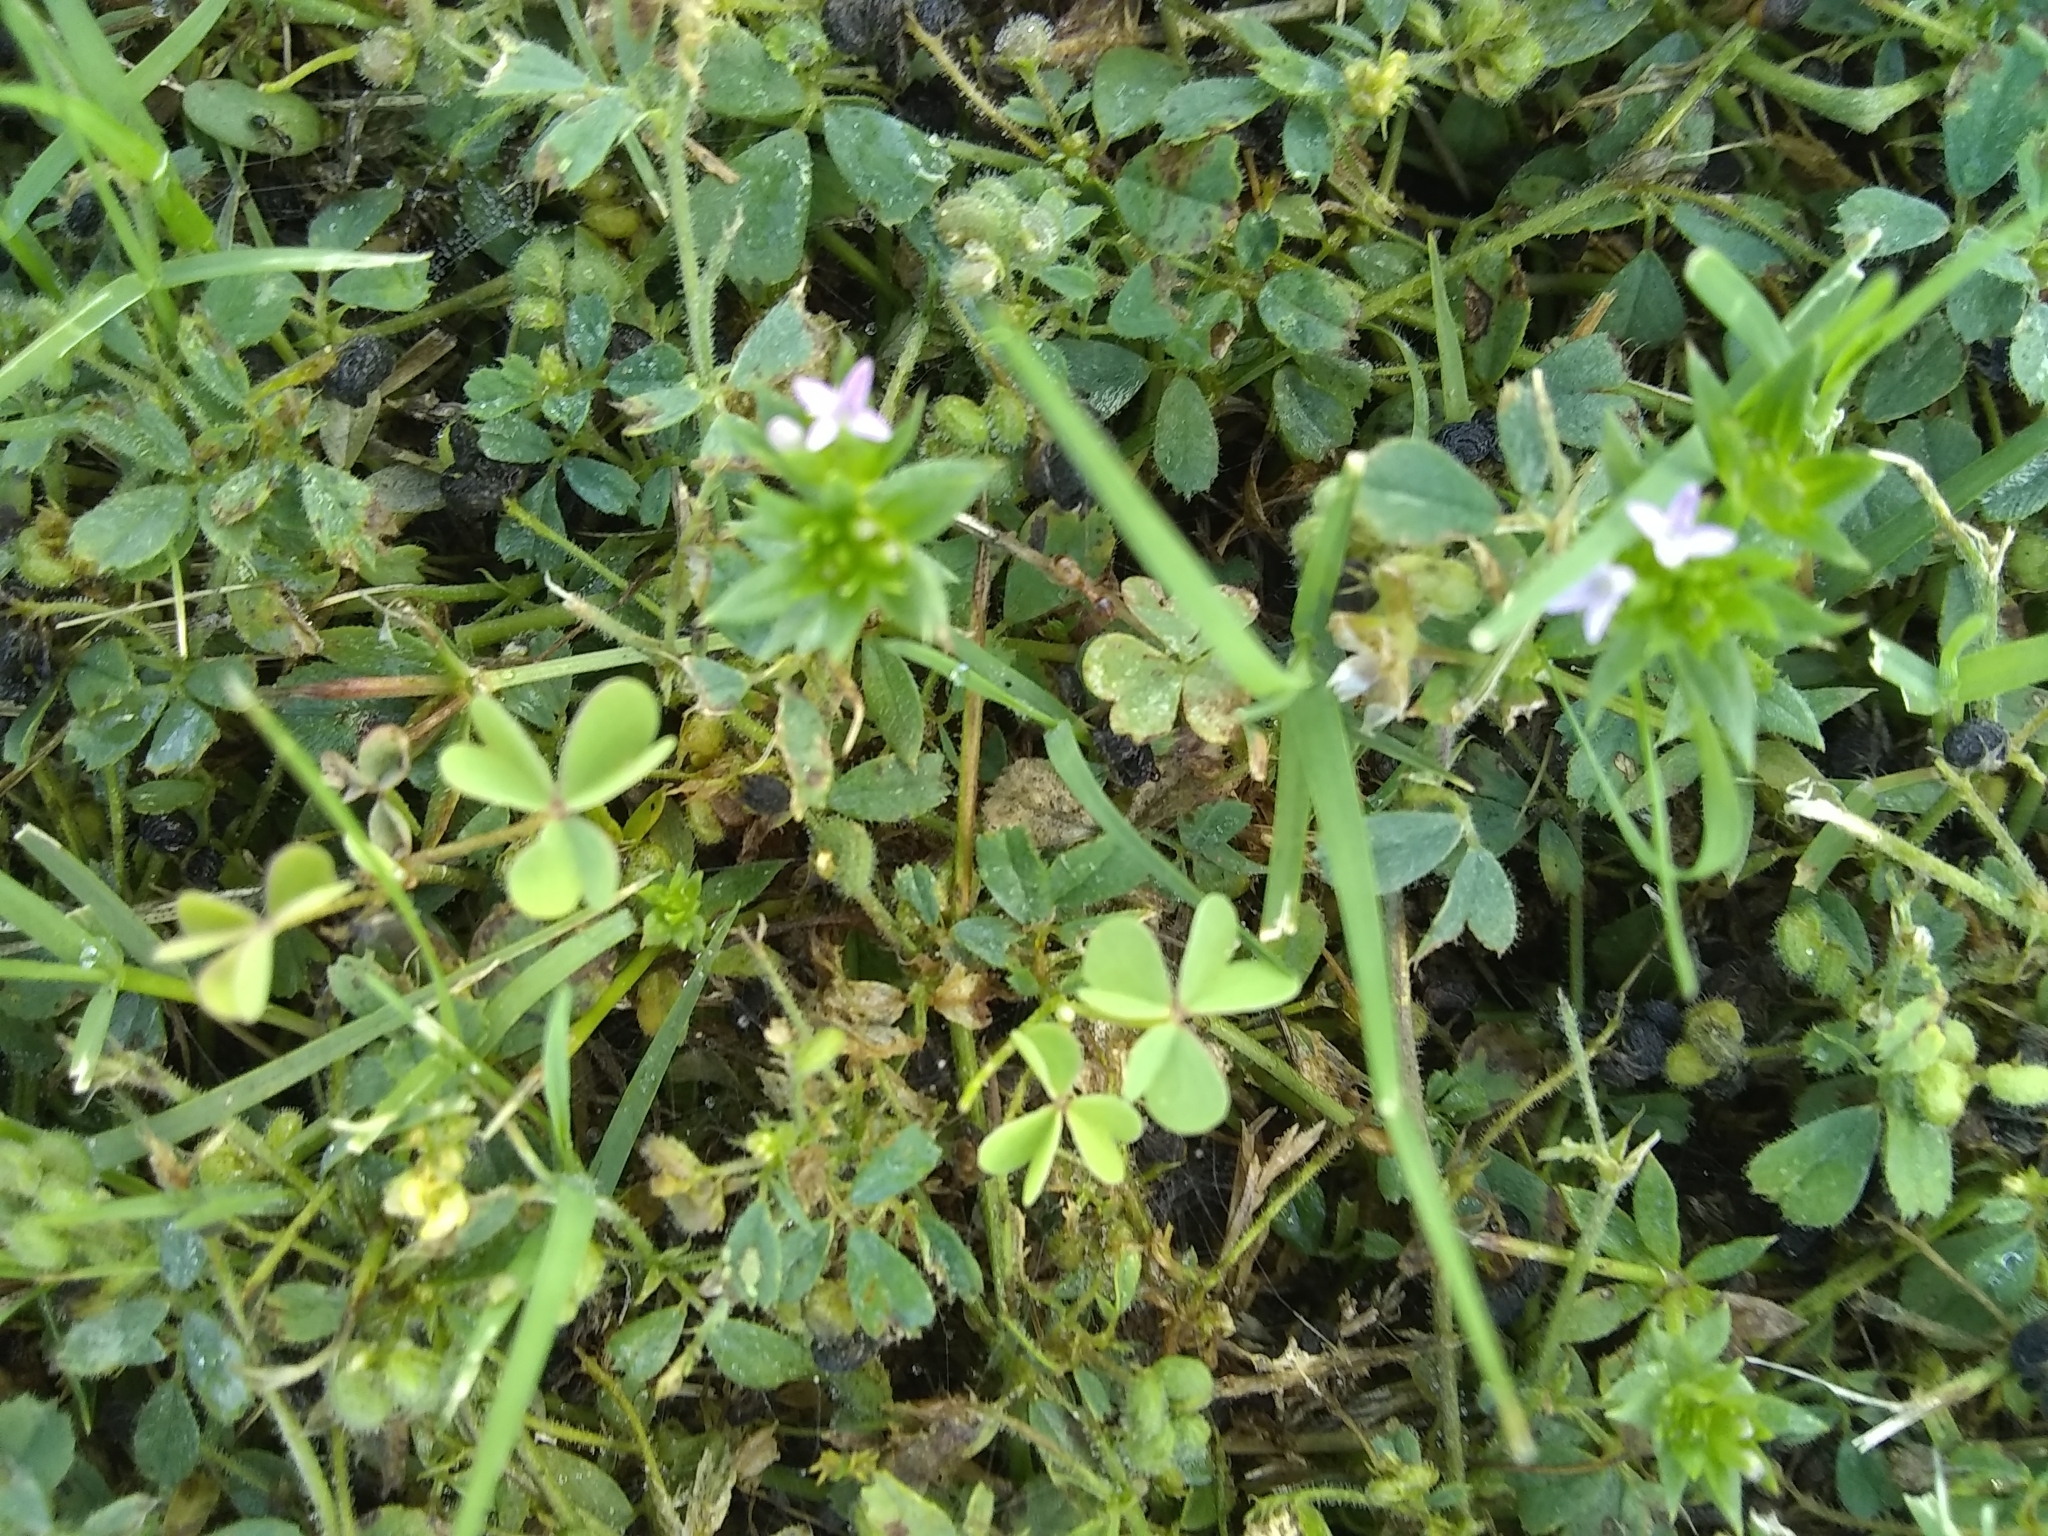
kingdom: Plantae
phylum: Tracheophyta
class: Magnoliopsida
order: Gentianales
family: Rubiaceae
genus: Sherardia
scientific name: Sherardia arvensis
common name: Field madder
